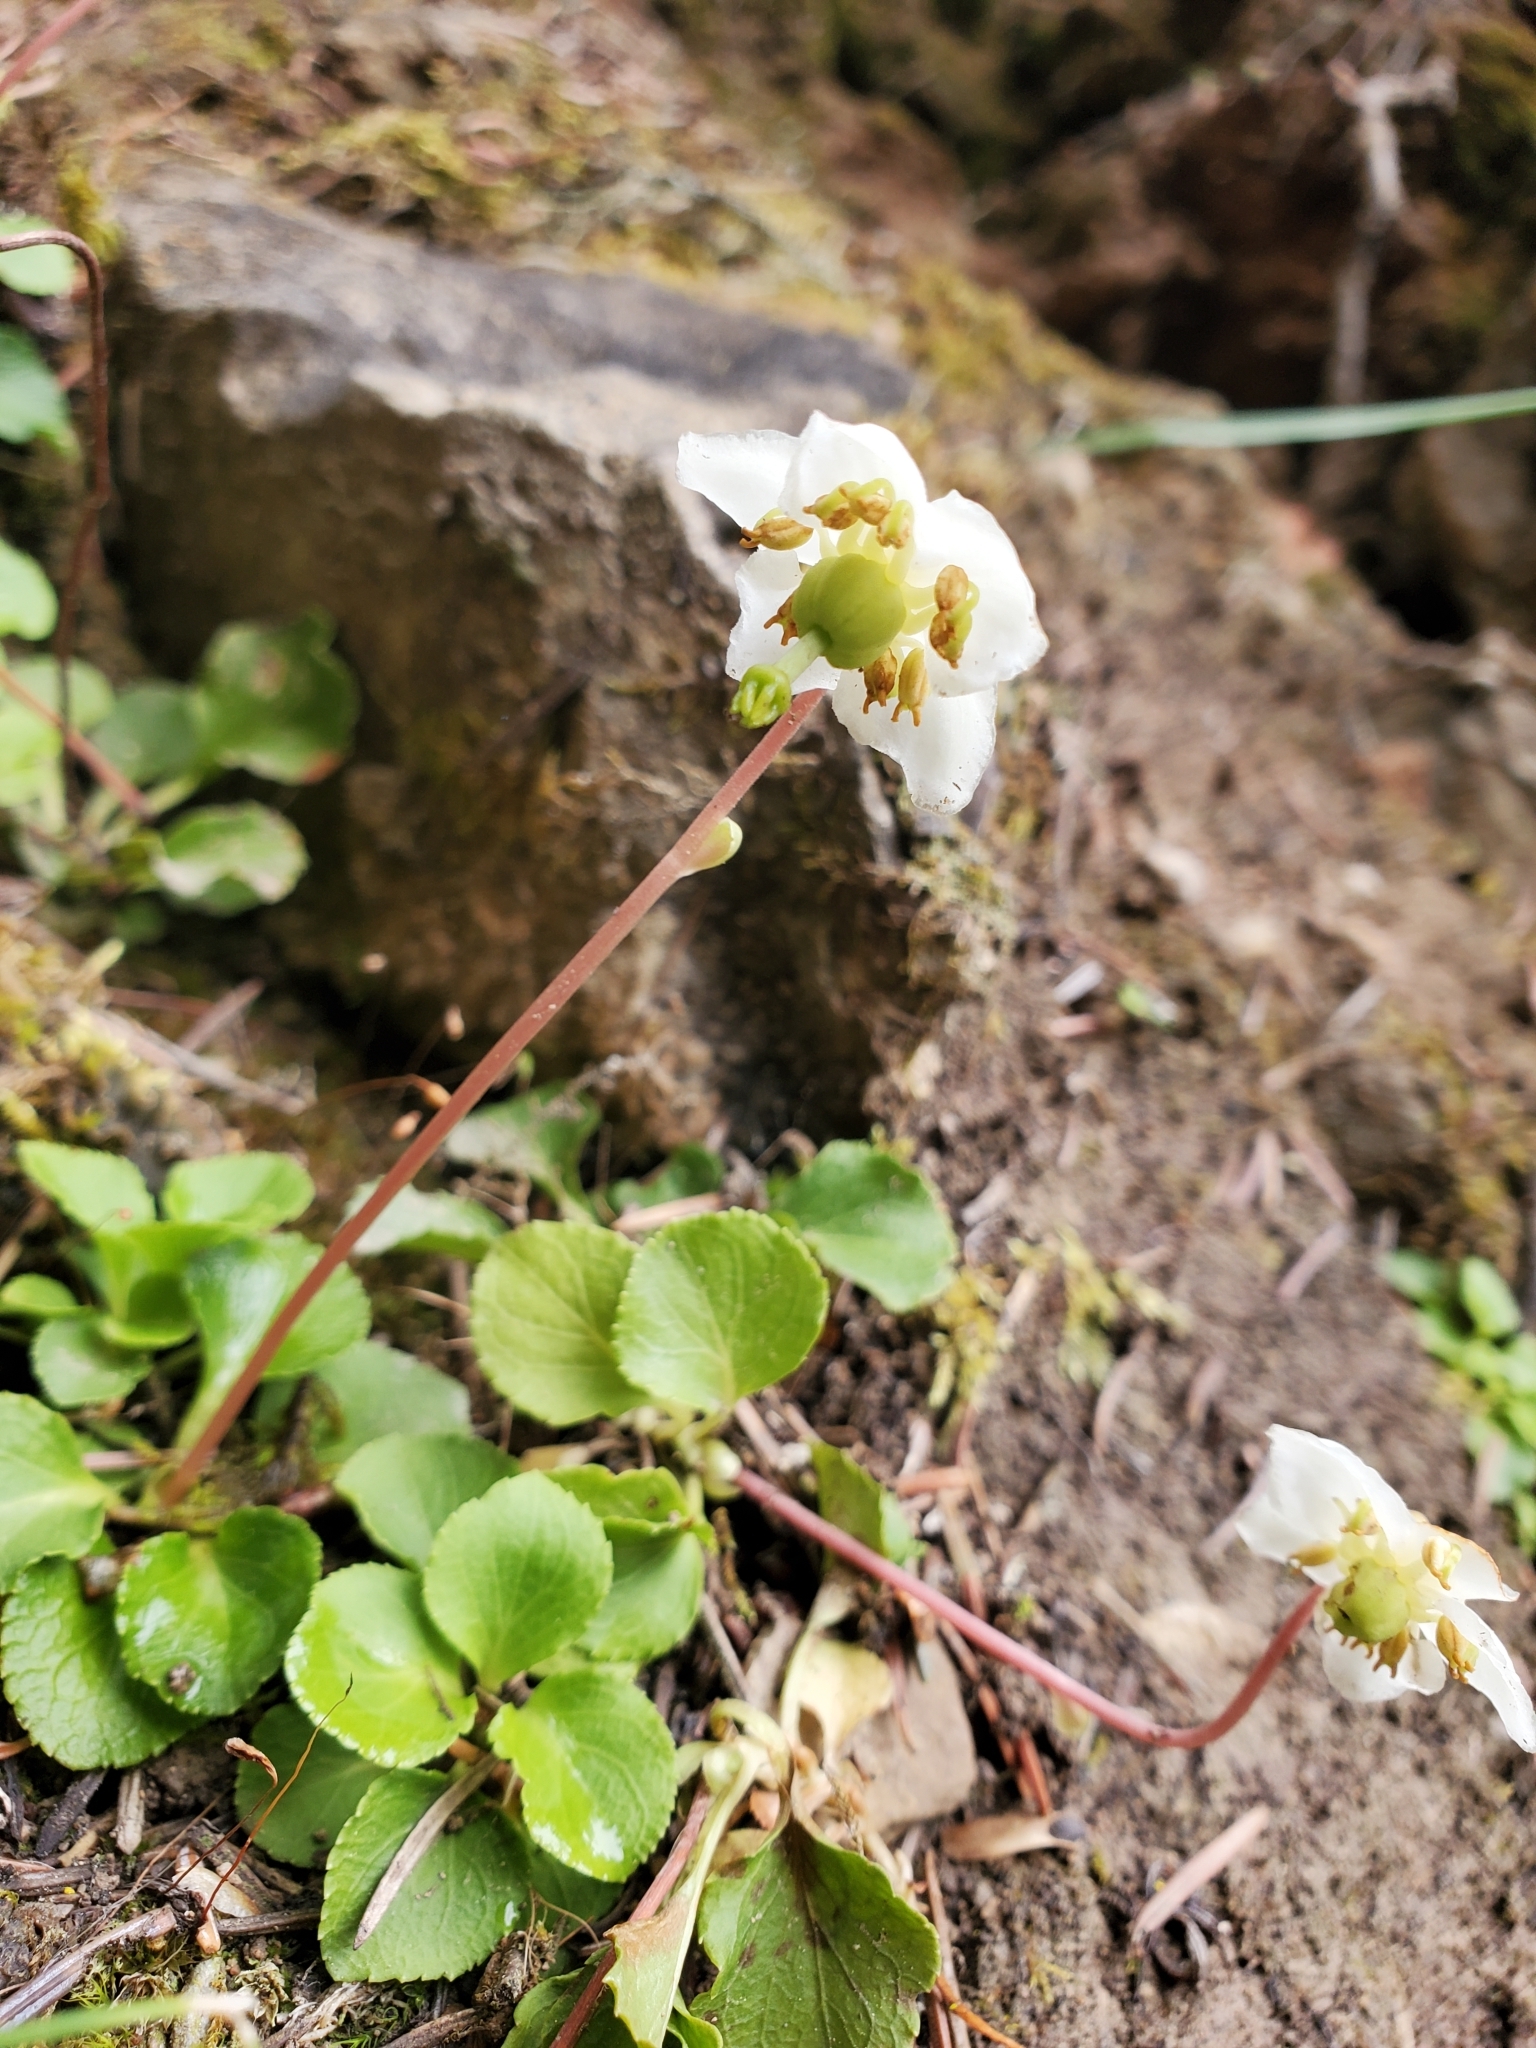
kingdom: Plantae
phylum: Tracheophyta
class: Magnoliopsida
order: Ericales
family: Ericaceae
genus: Moneses
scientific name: Moneses uniflora
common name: One-flowered wintergreen
